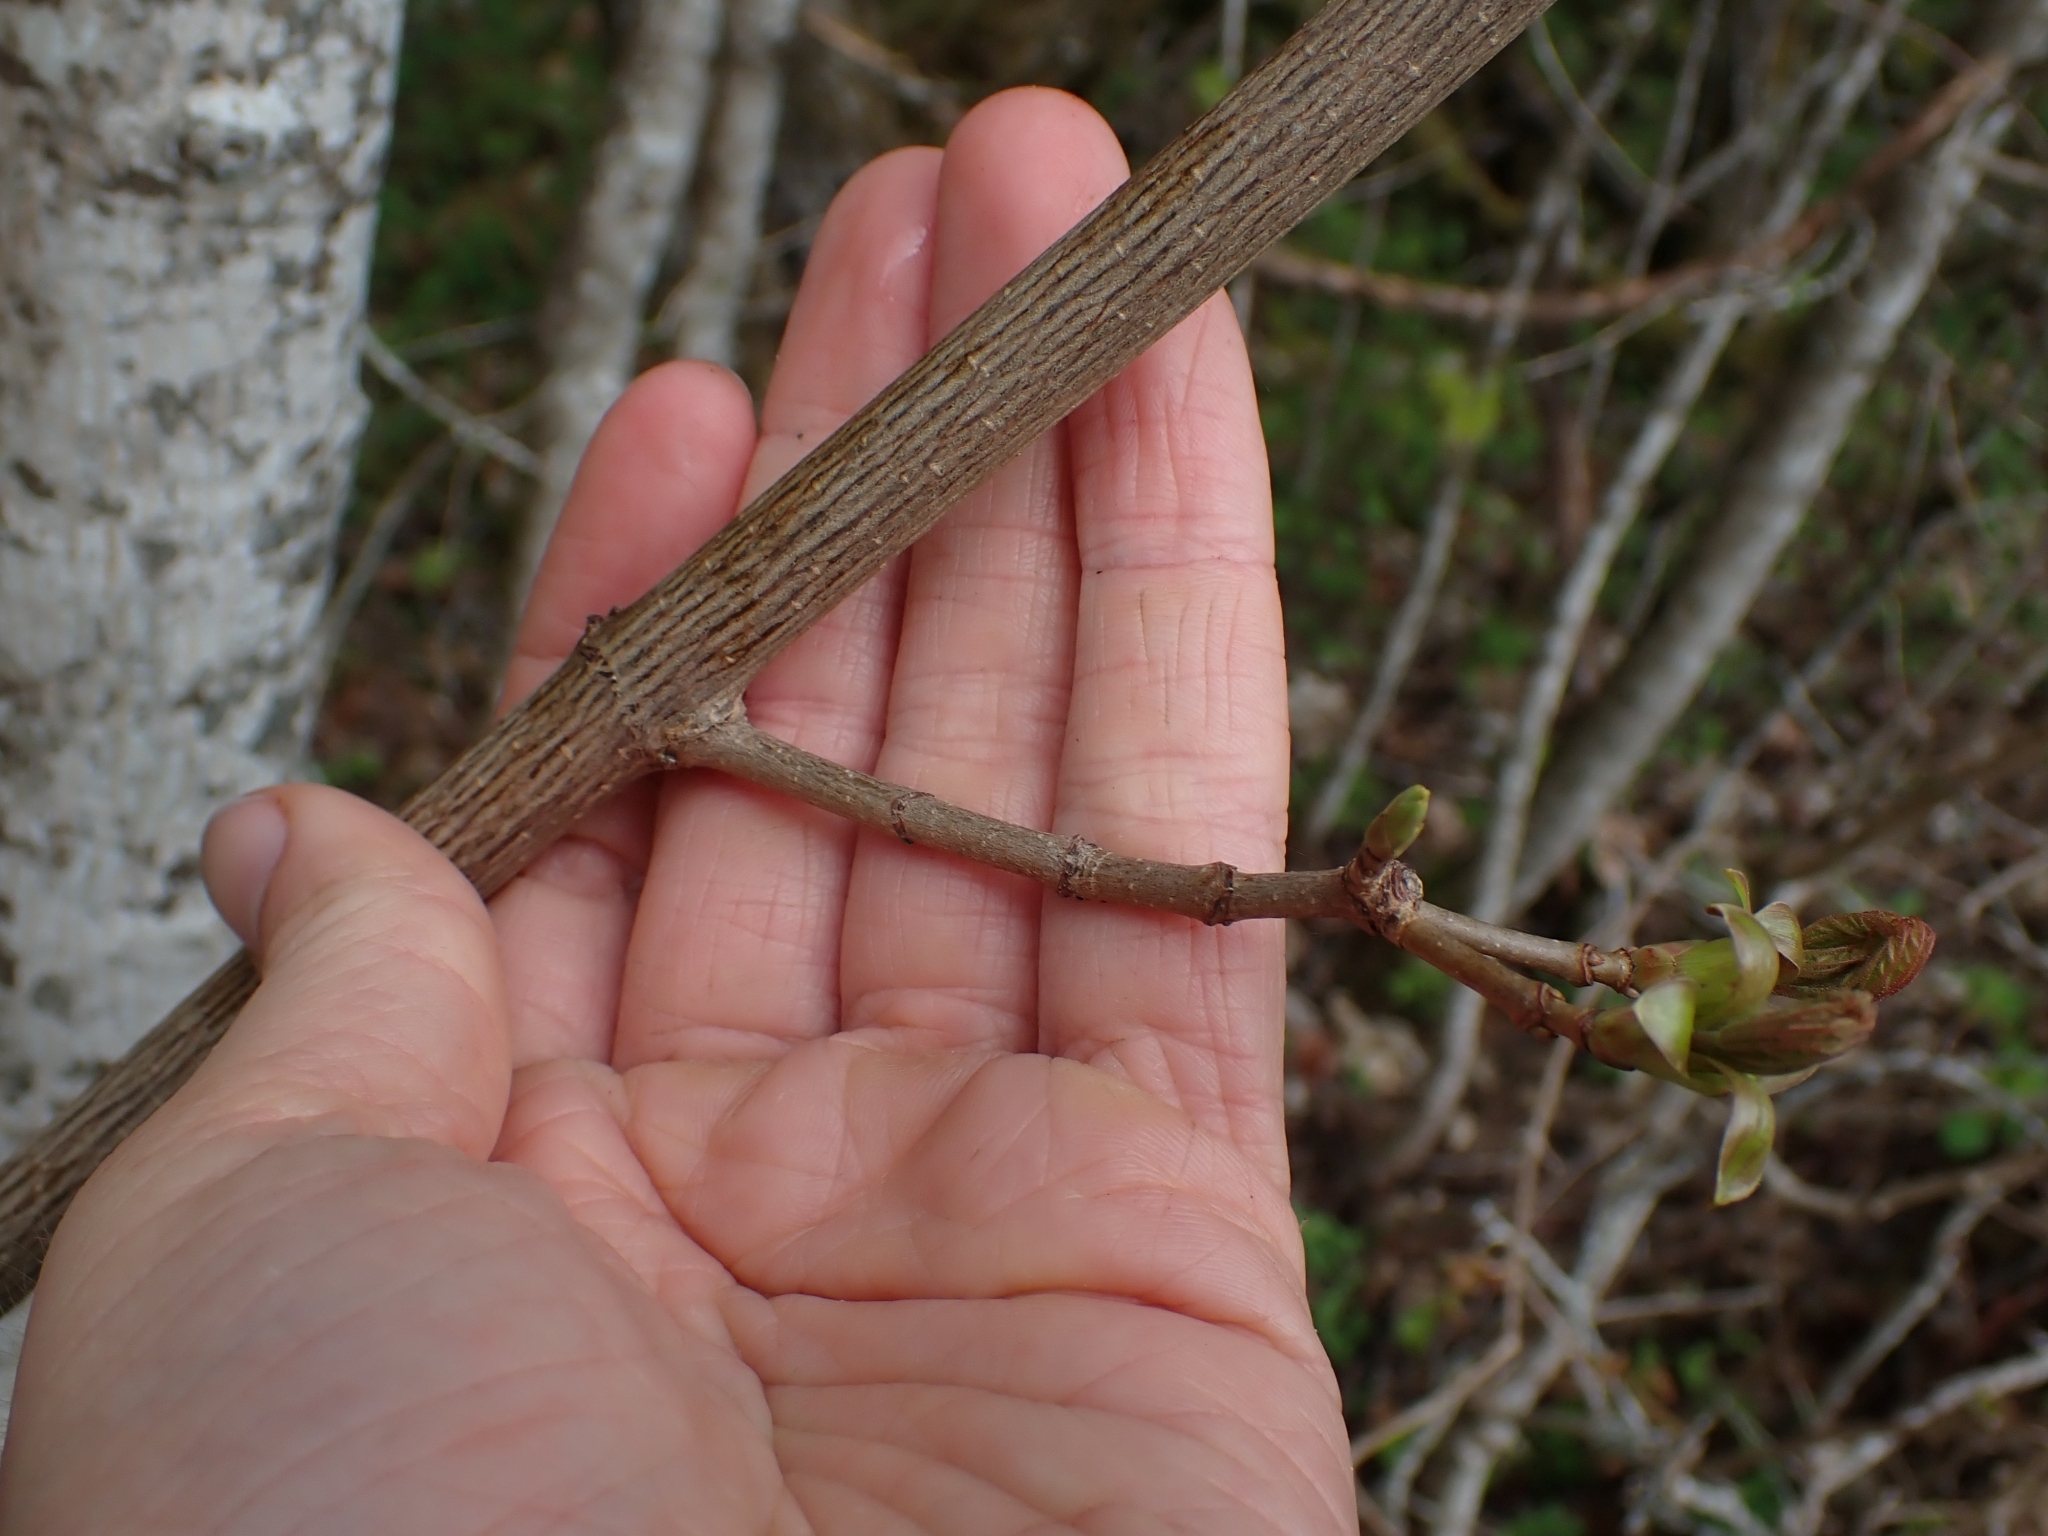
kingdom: Plantae
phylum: Tracheophyta
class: Magnoliopsida
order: Sapindales
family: Sapindaceae
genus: Acer
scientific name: Acer macrophyllum
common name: Oregon maple
